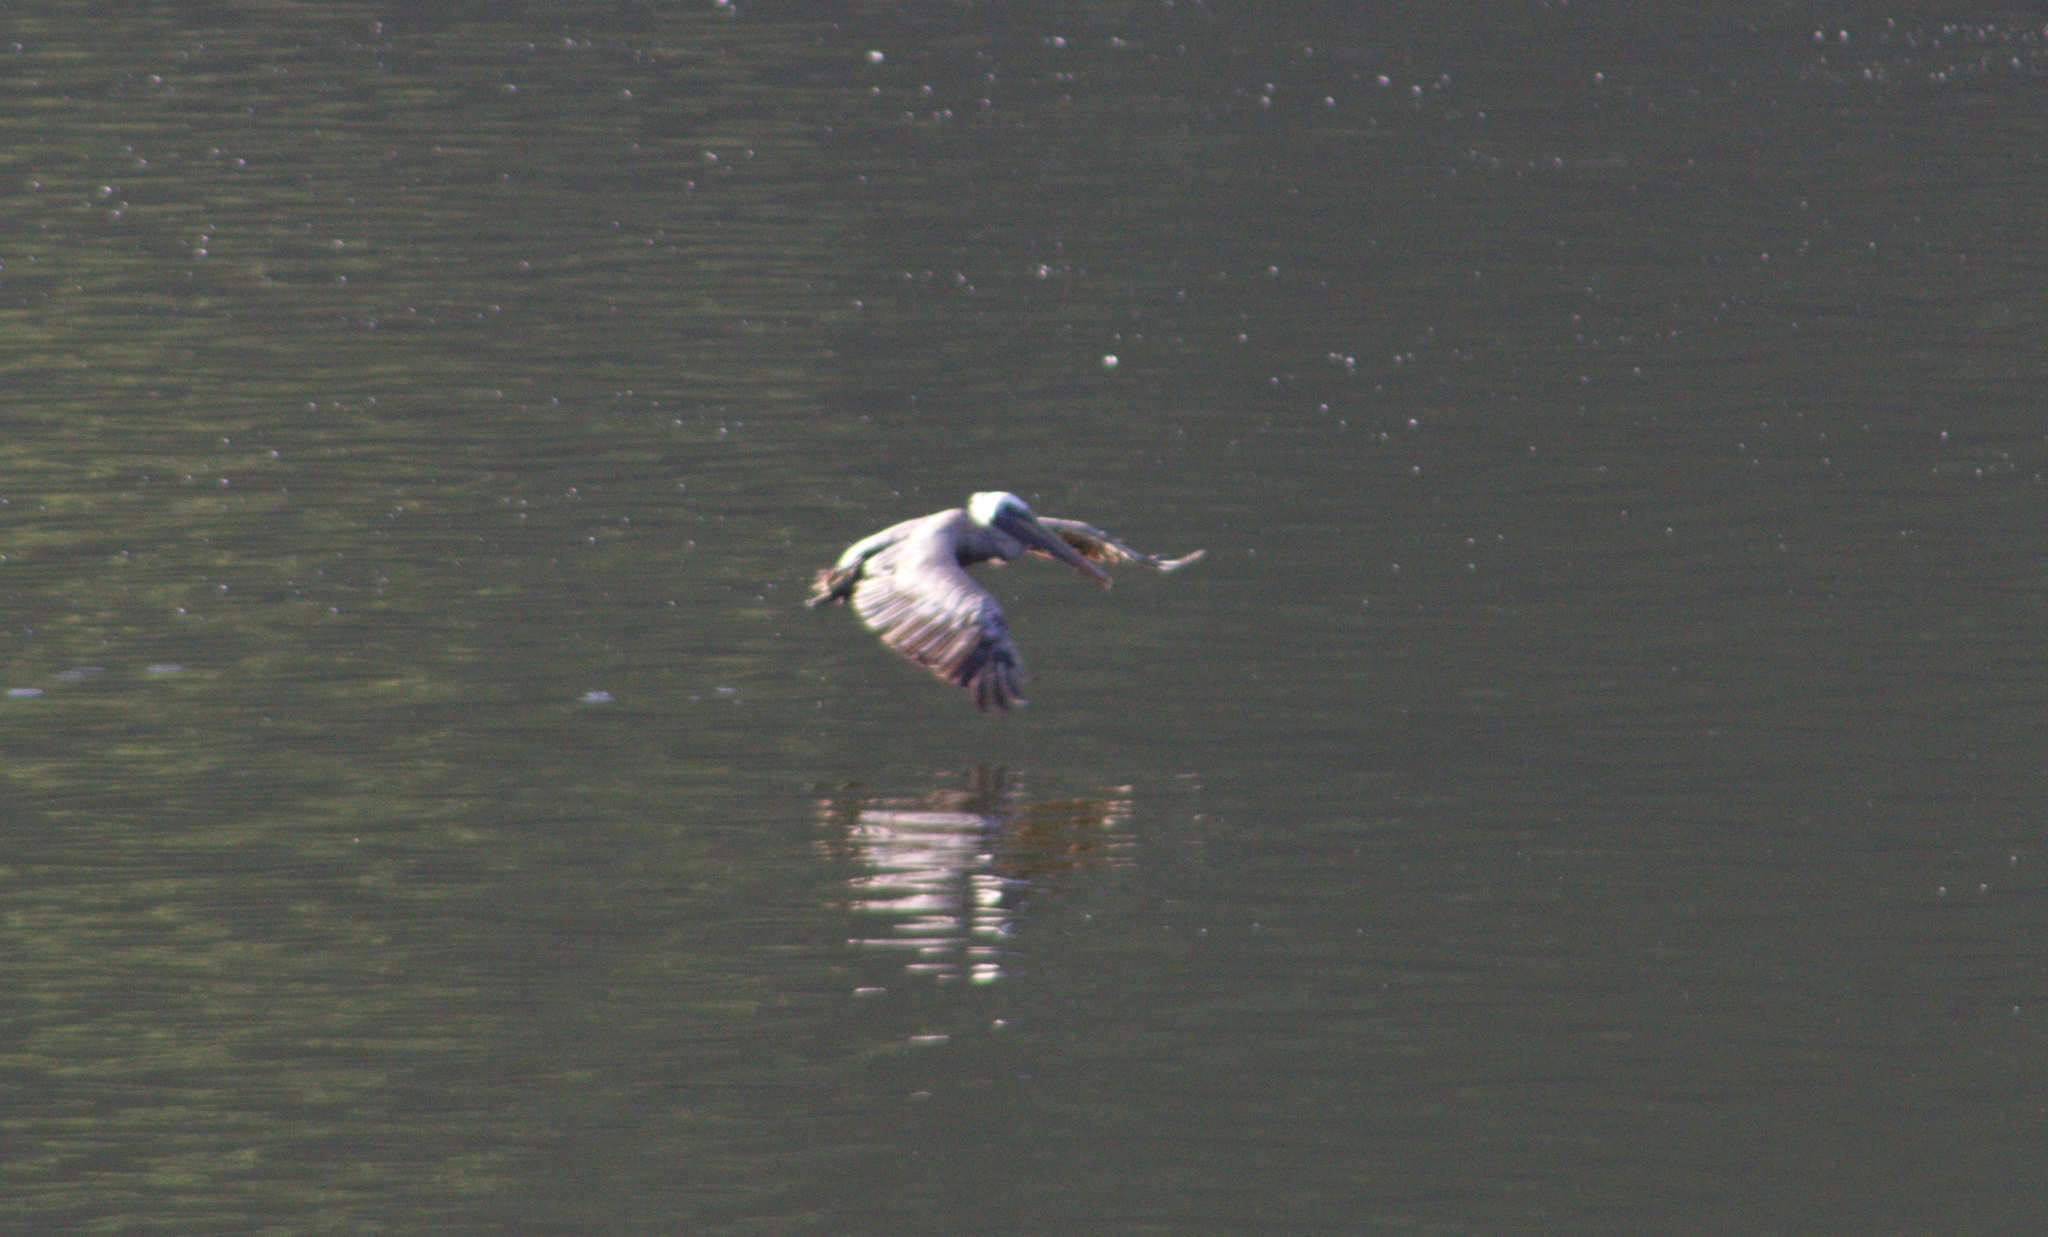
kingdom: Animalia
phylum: Chordata
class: Aves
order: Pelecaniformes
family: Pelecanidae
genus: Pelecanus
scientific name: Pelecanus occidentalis
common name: Brown pelican
